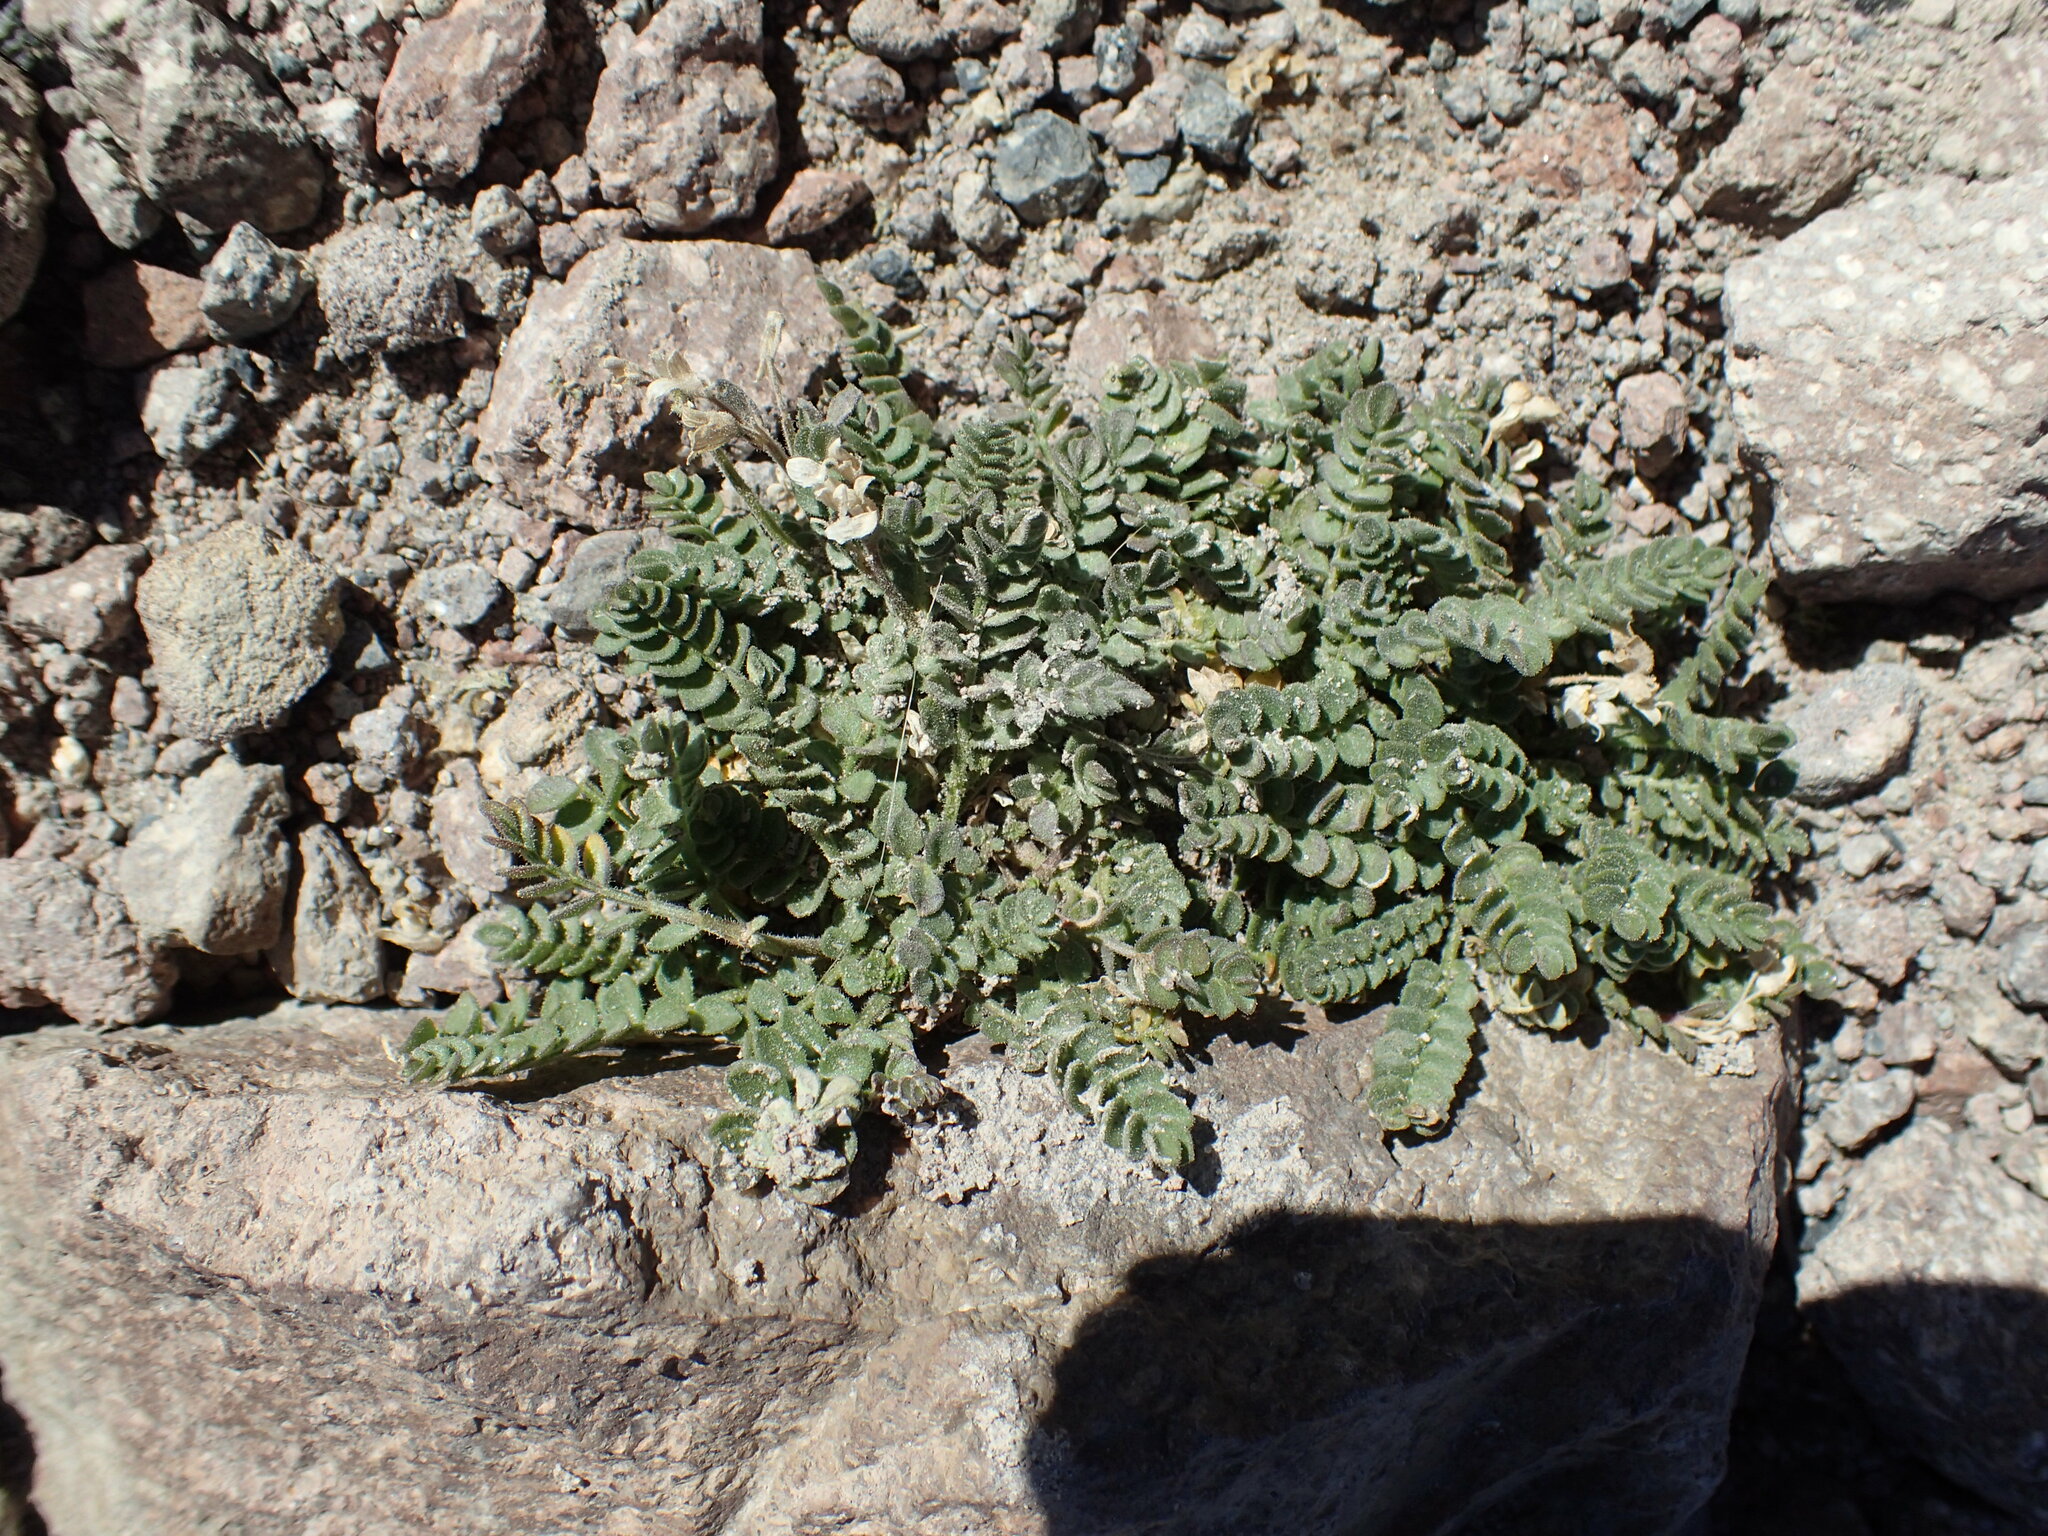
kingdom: Plantae
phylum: Tracheophyta
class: Magnoliopsida
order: Ericales
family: Polemoniaceae
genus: Polemonium
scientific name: Polemonium pulcherrimum
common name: Short jacob's-ladder
